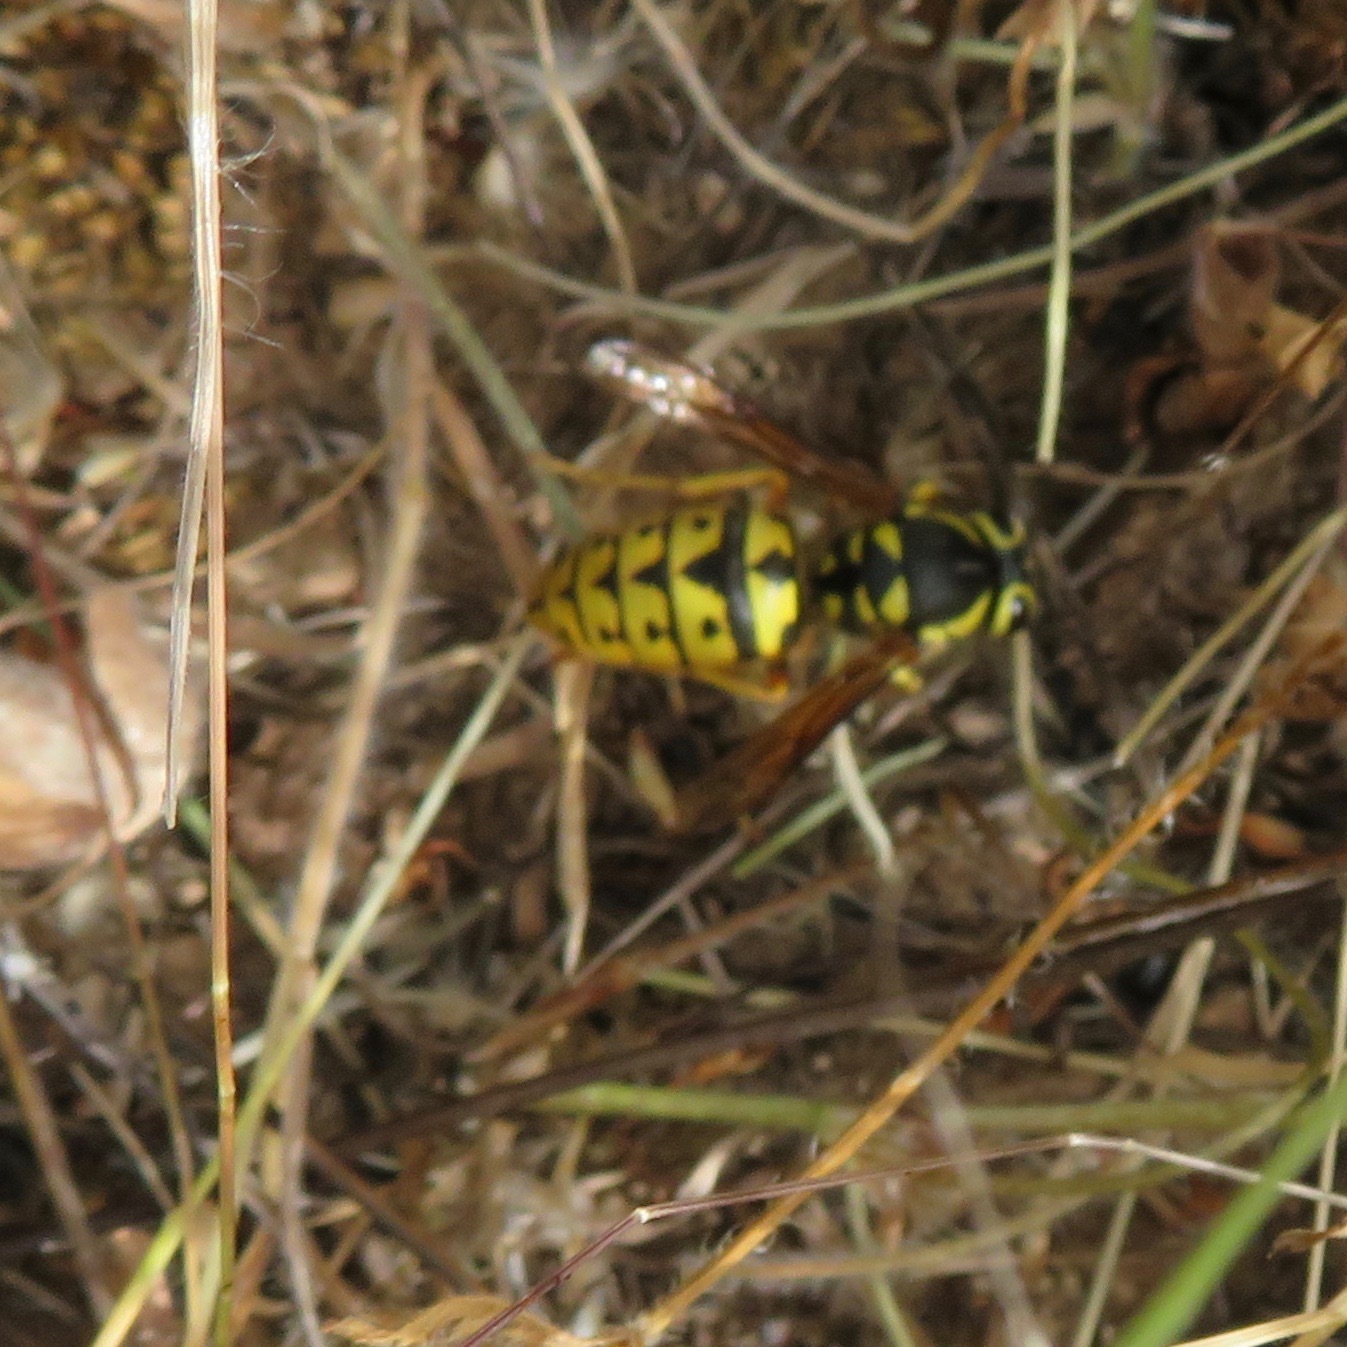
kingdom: Animalia
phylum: Arthropoda
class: Insecta
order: Hymenoptera
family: Vespidae
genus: Vespula
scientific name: Vespula pensylvanica
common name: Western yellowjacket
